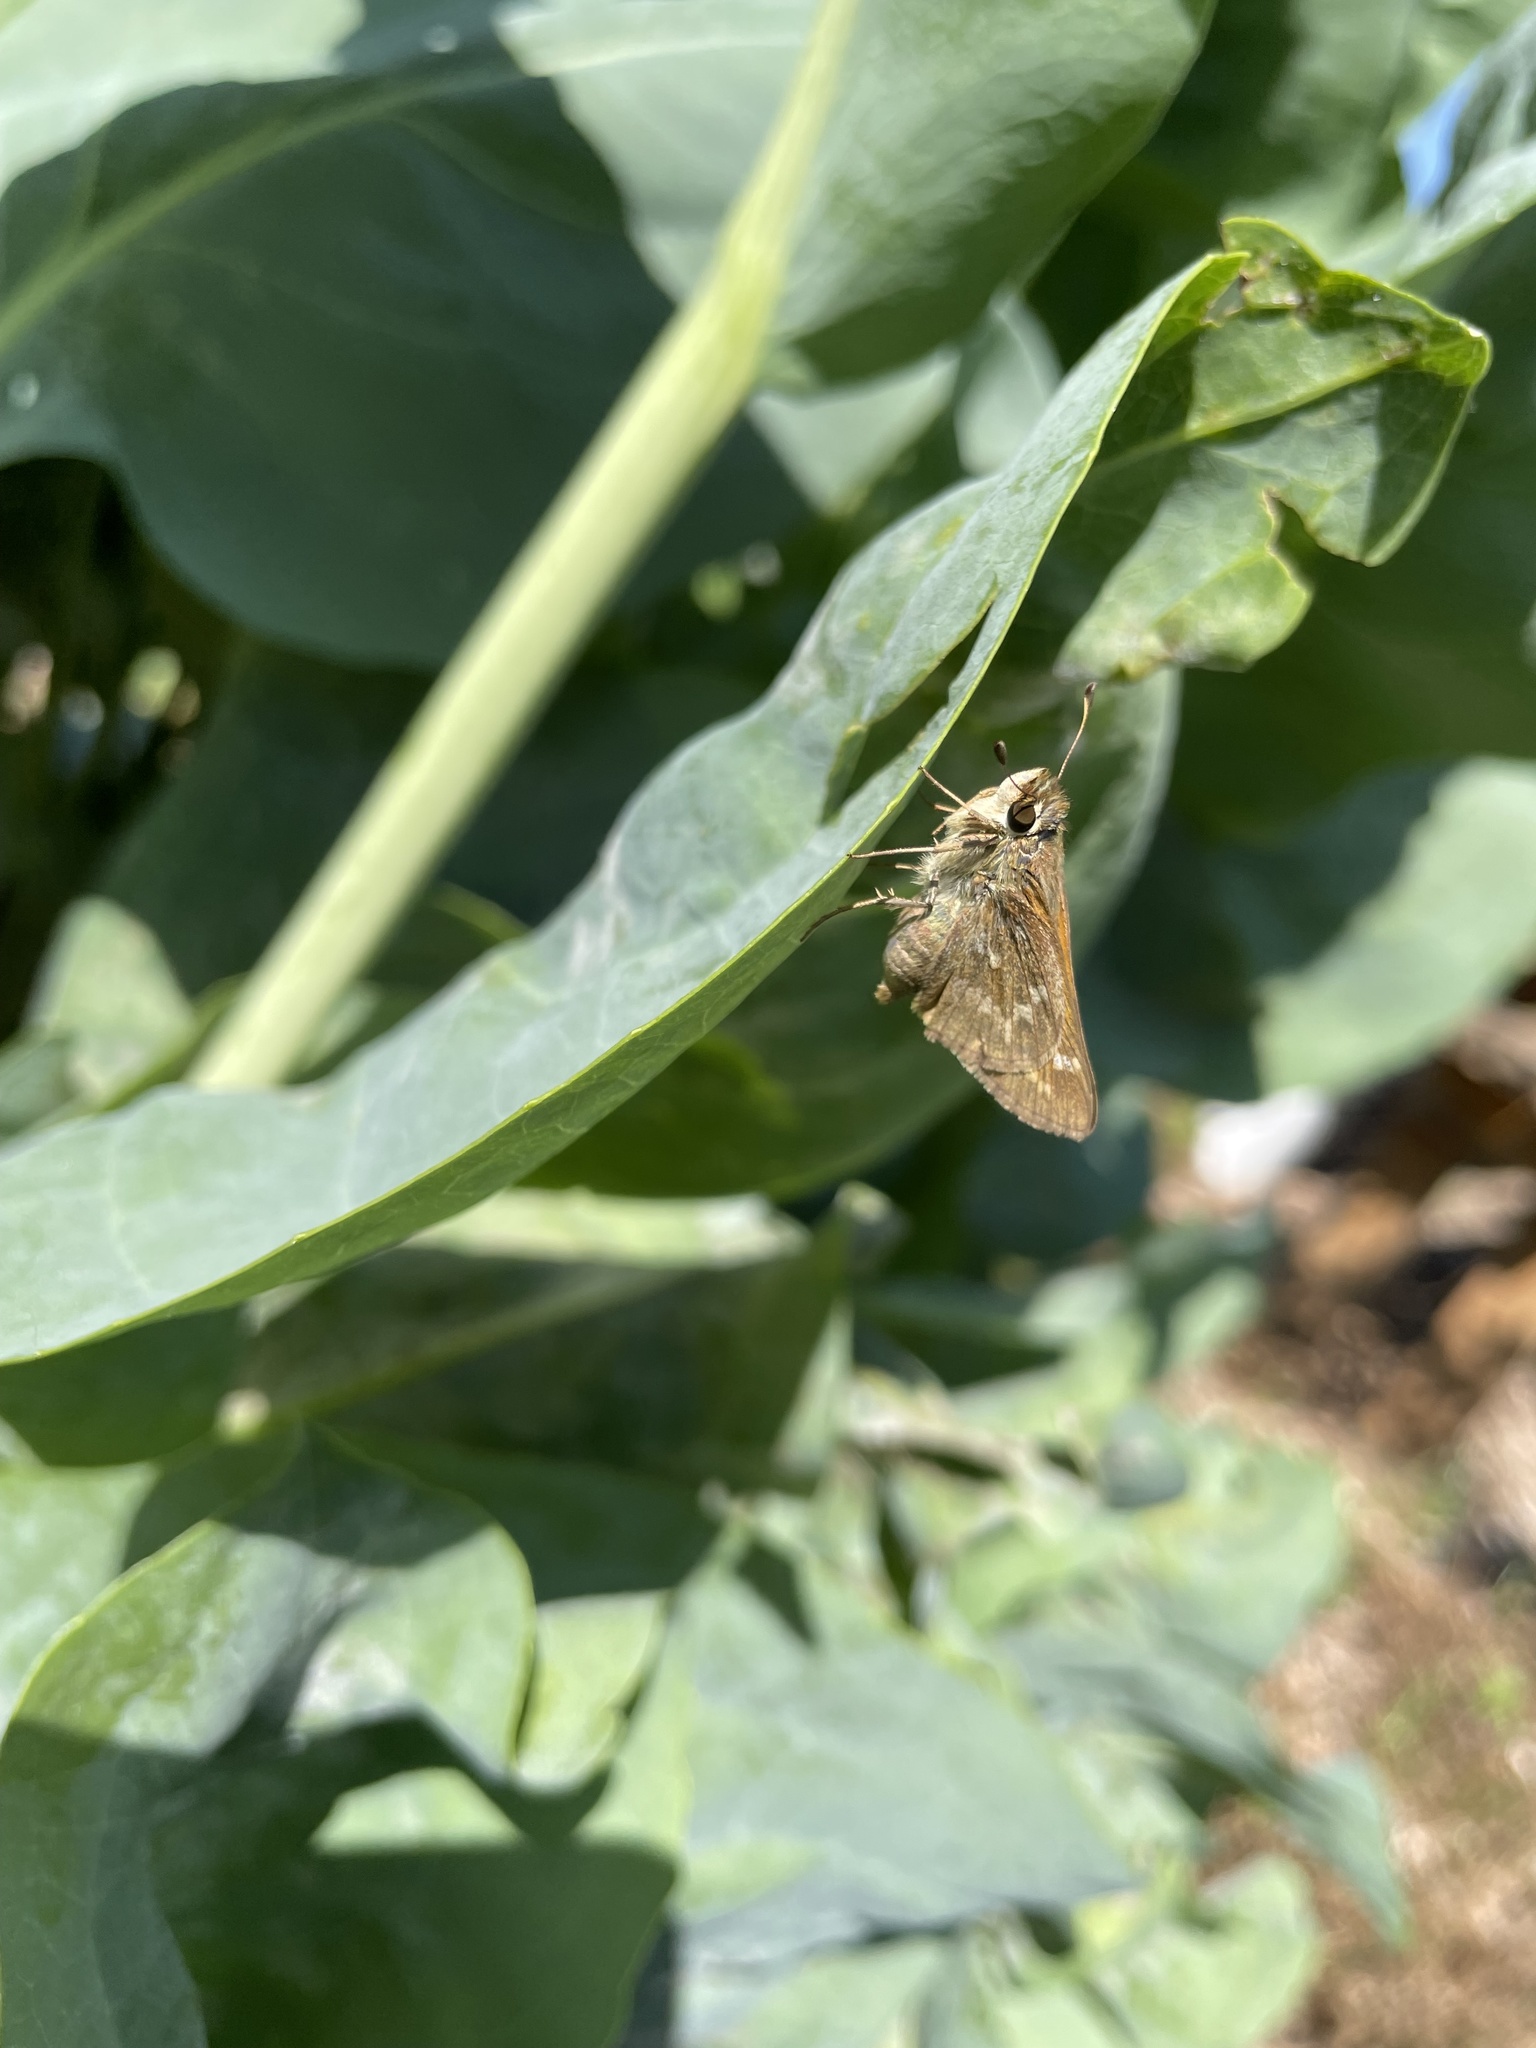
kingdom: Animalia
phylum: Arthropoda
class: Insecta
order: Lepidoptera
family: Hesperiidae
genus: Atalopedes
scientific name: Atalopedes
